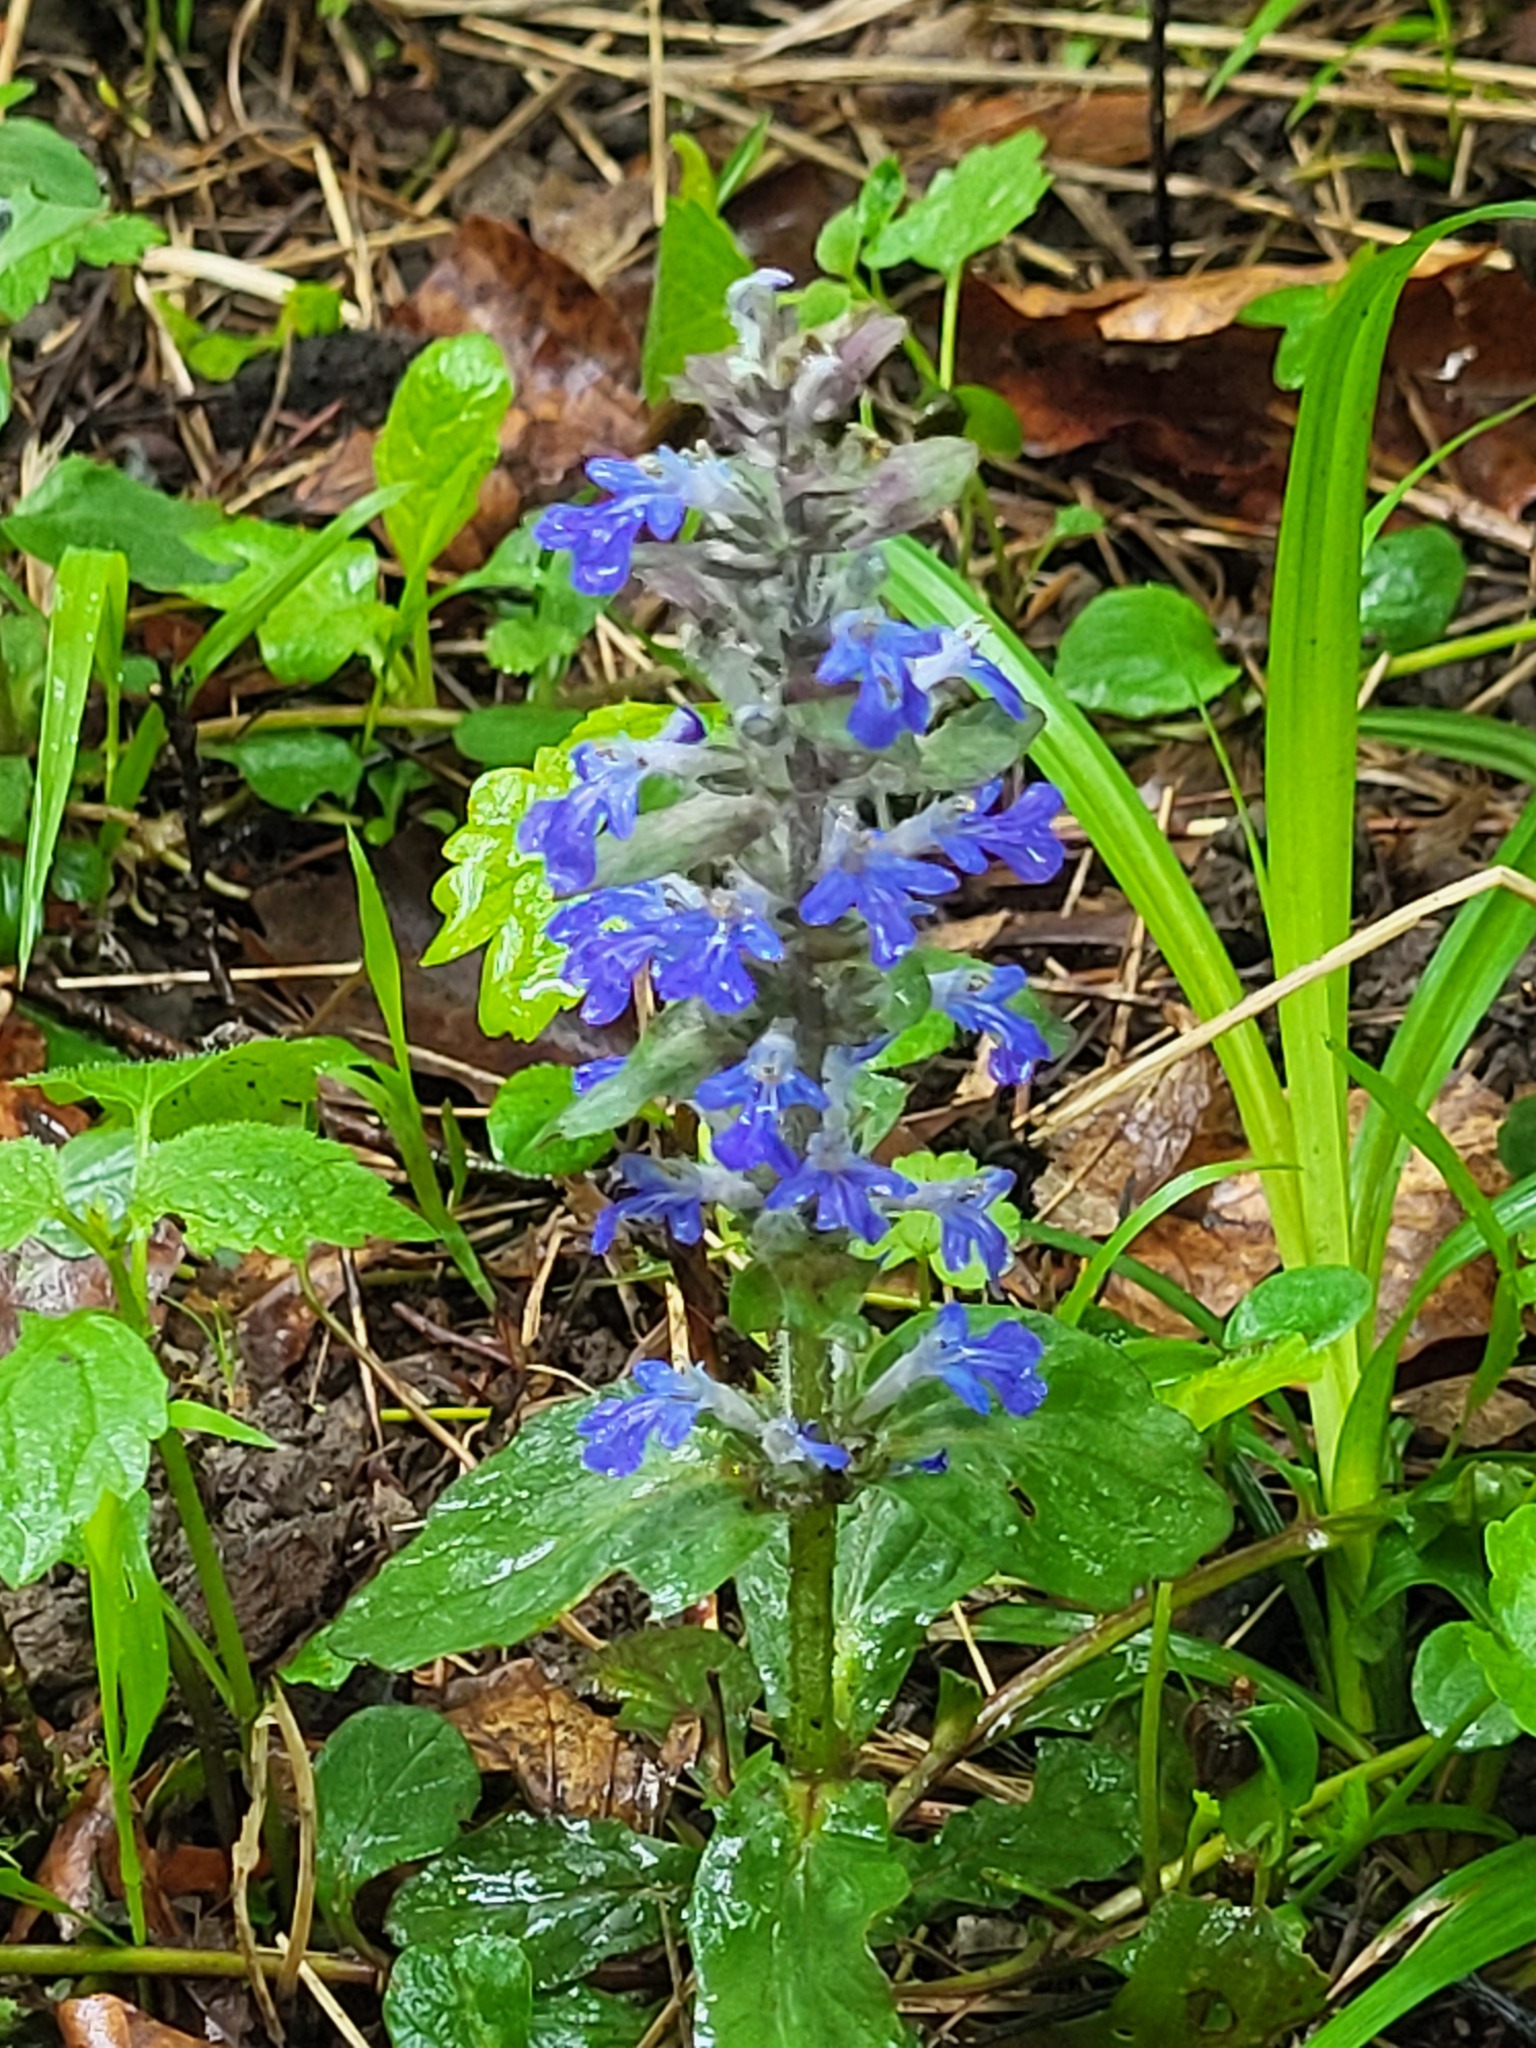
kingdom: Plantae
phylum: Tracheophyta
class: Magnoliopsida
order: Lamiales
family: Lamiaceae
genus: Ajuga
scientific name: Ajuga reptans
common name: Bugle
